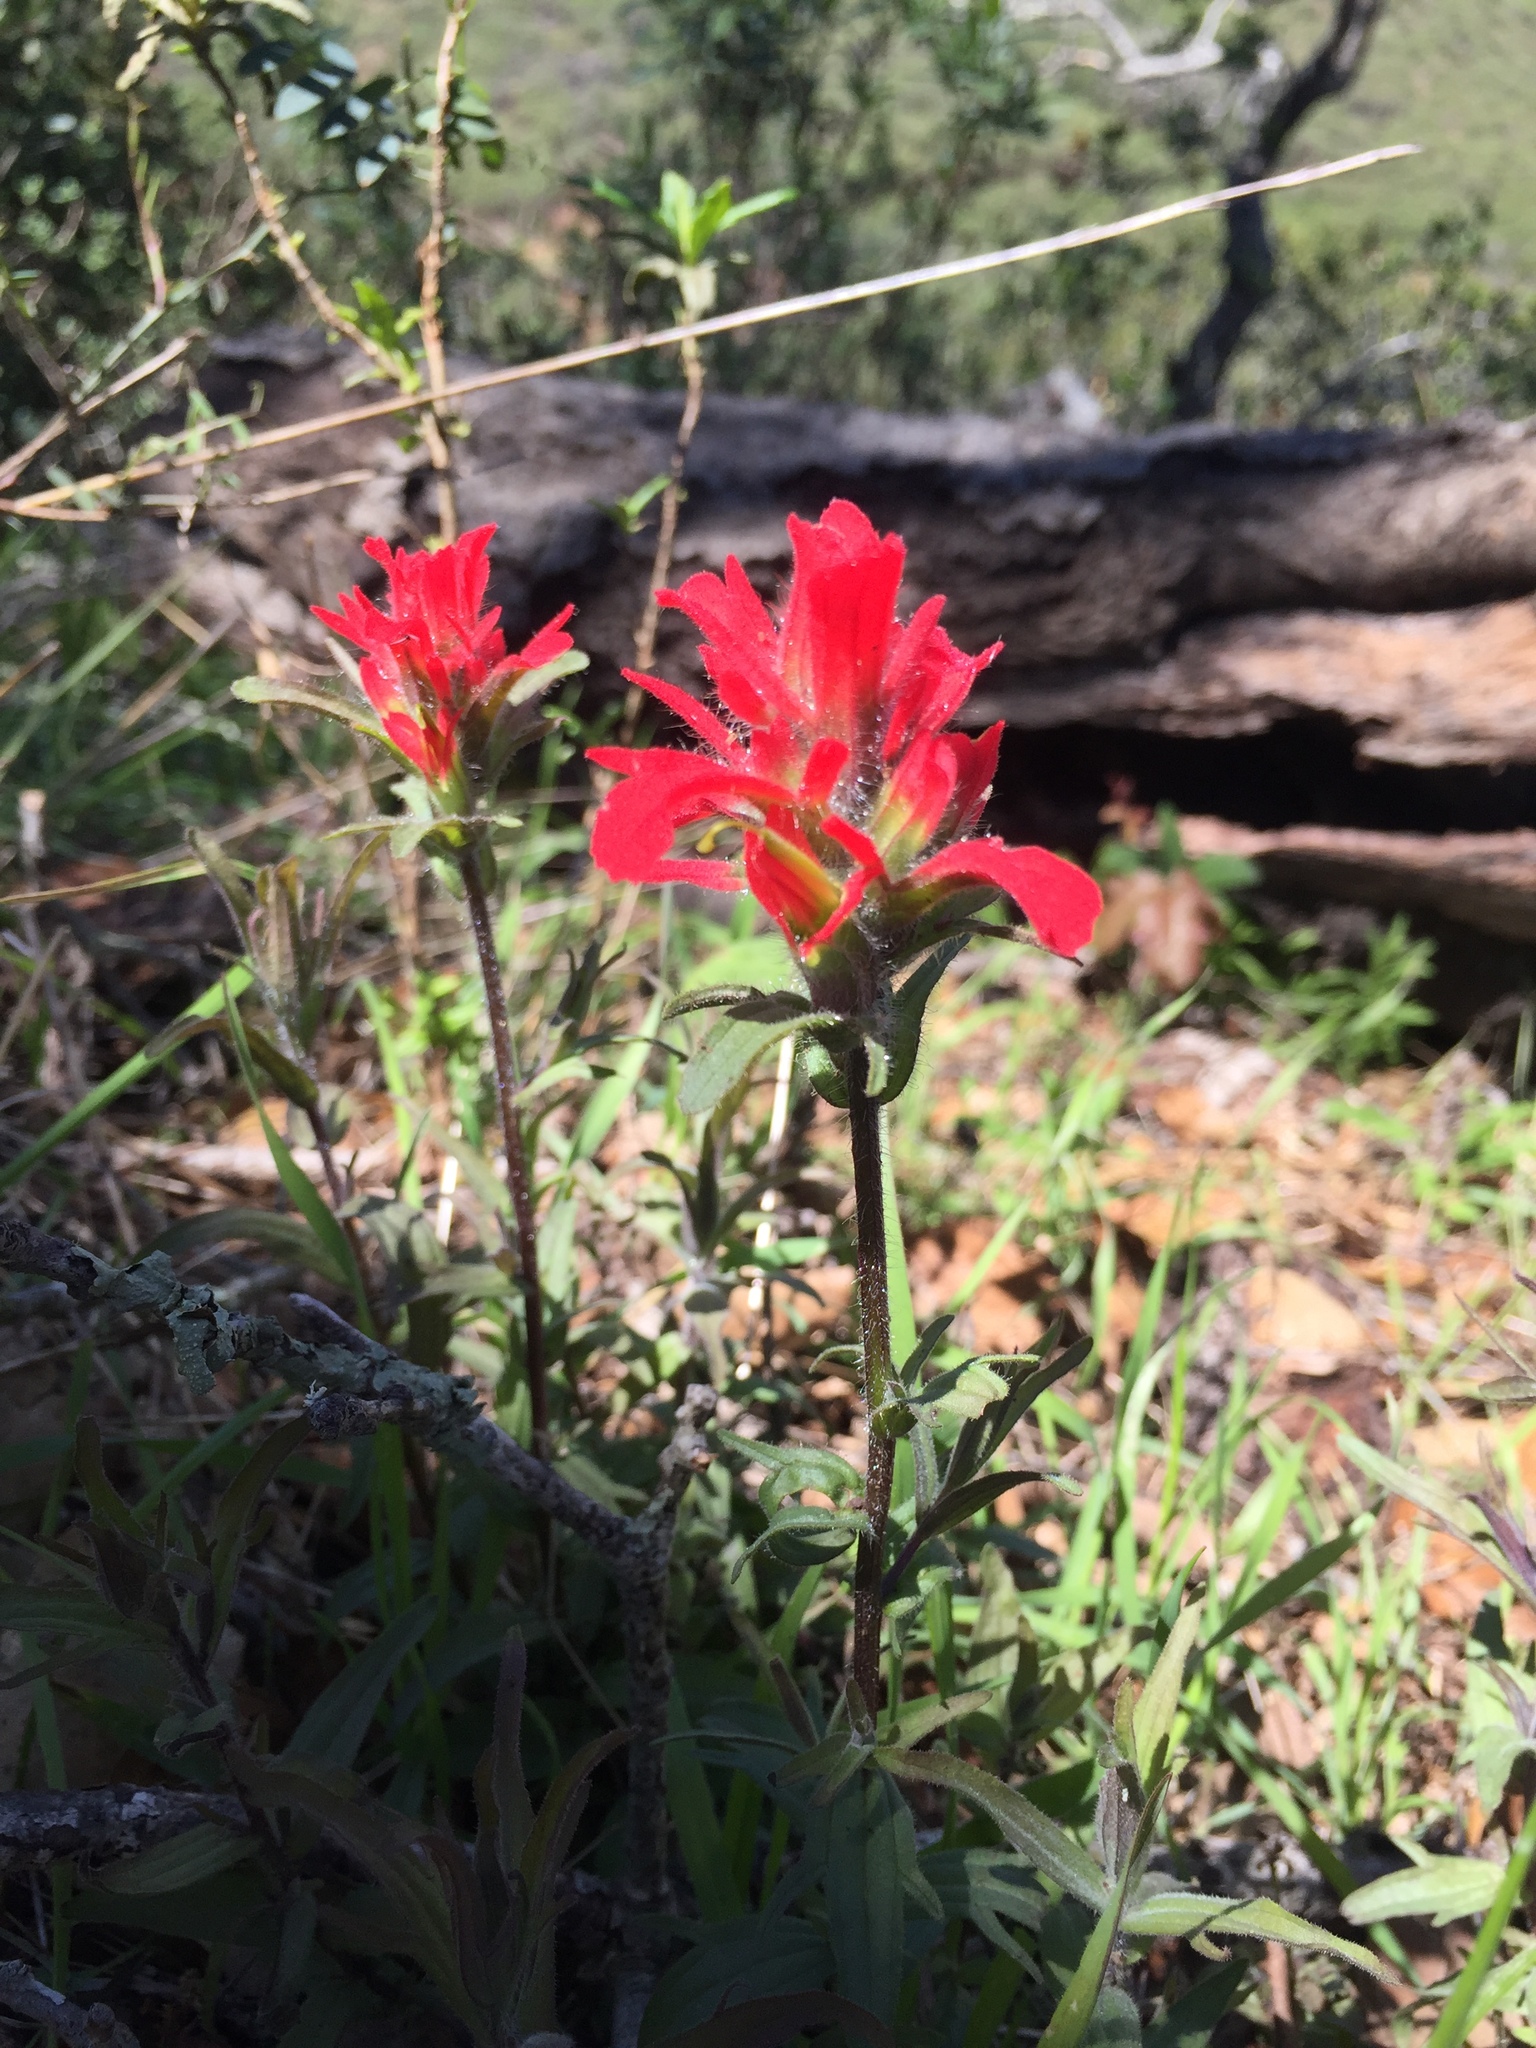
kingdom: Plantae
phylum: Tracheophyta
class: Magnoliopsida
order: Lamiales
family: Orobanchaceae
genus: Castilleja
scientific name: Castilleja affinis
